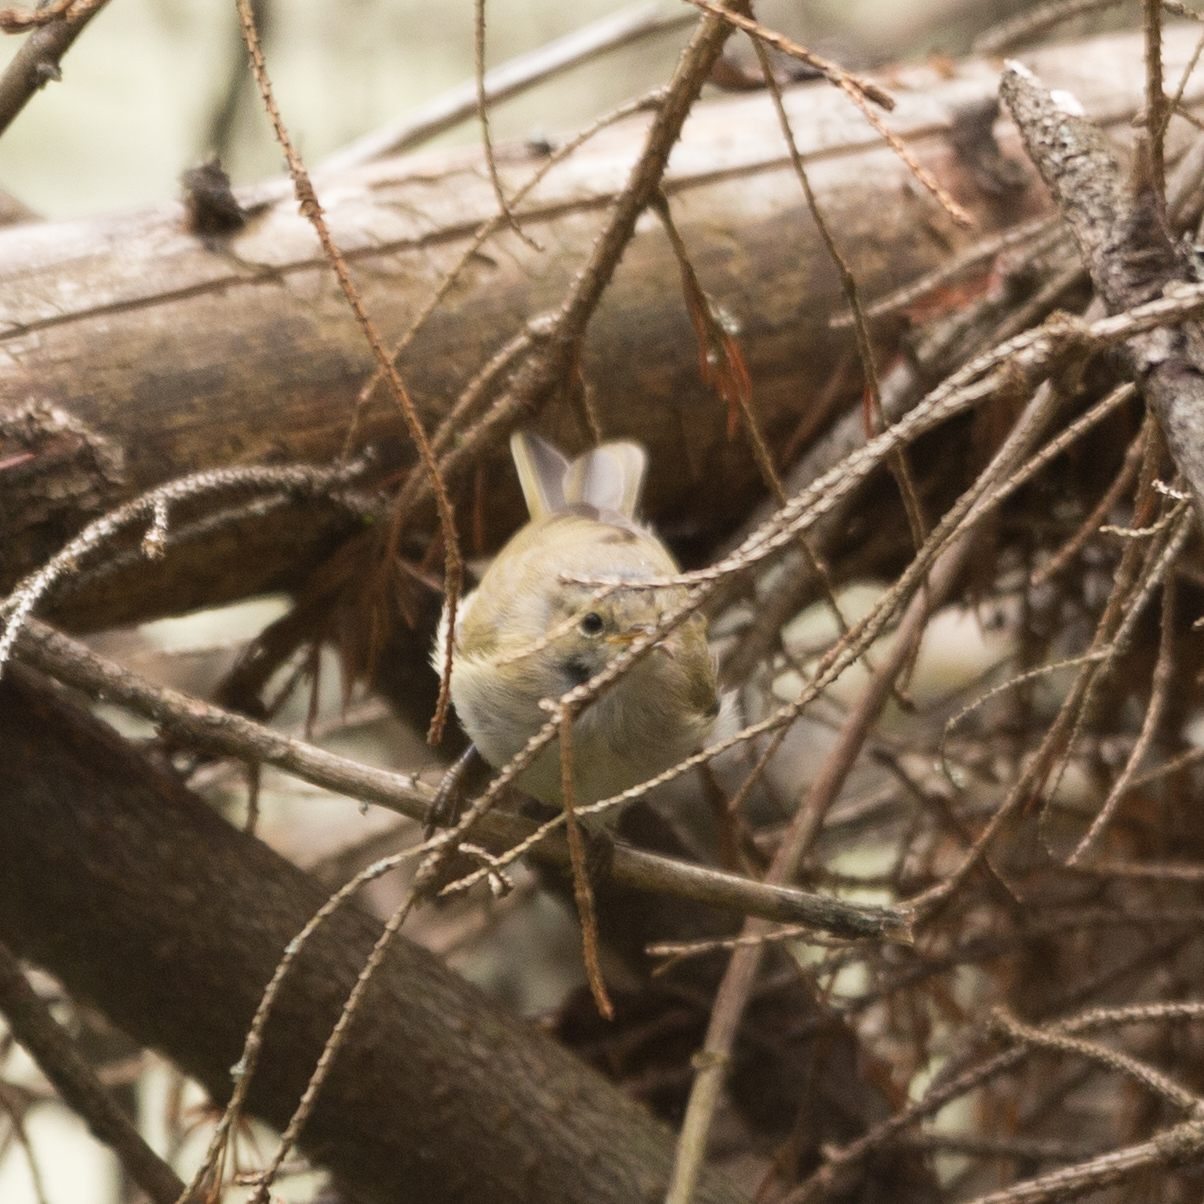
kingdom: Animalia
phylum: Chordata
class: Aves
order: Passeriformes
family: Phylloscopidae
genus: Phylloscopus
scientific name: Phylloscopus collybita
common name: Common chiffchaff
